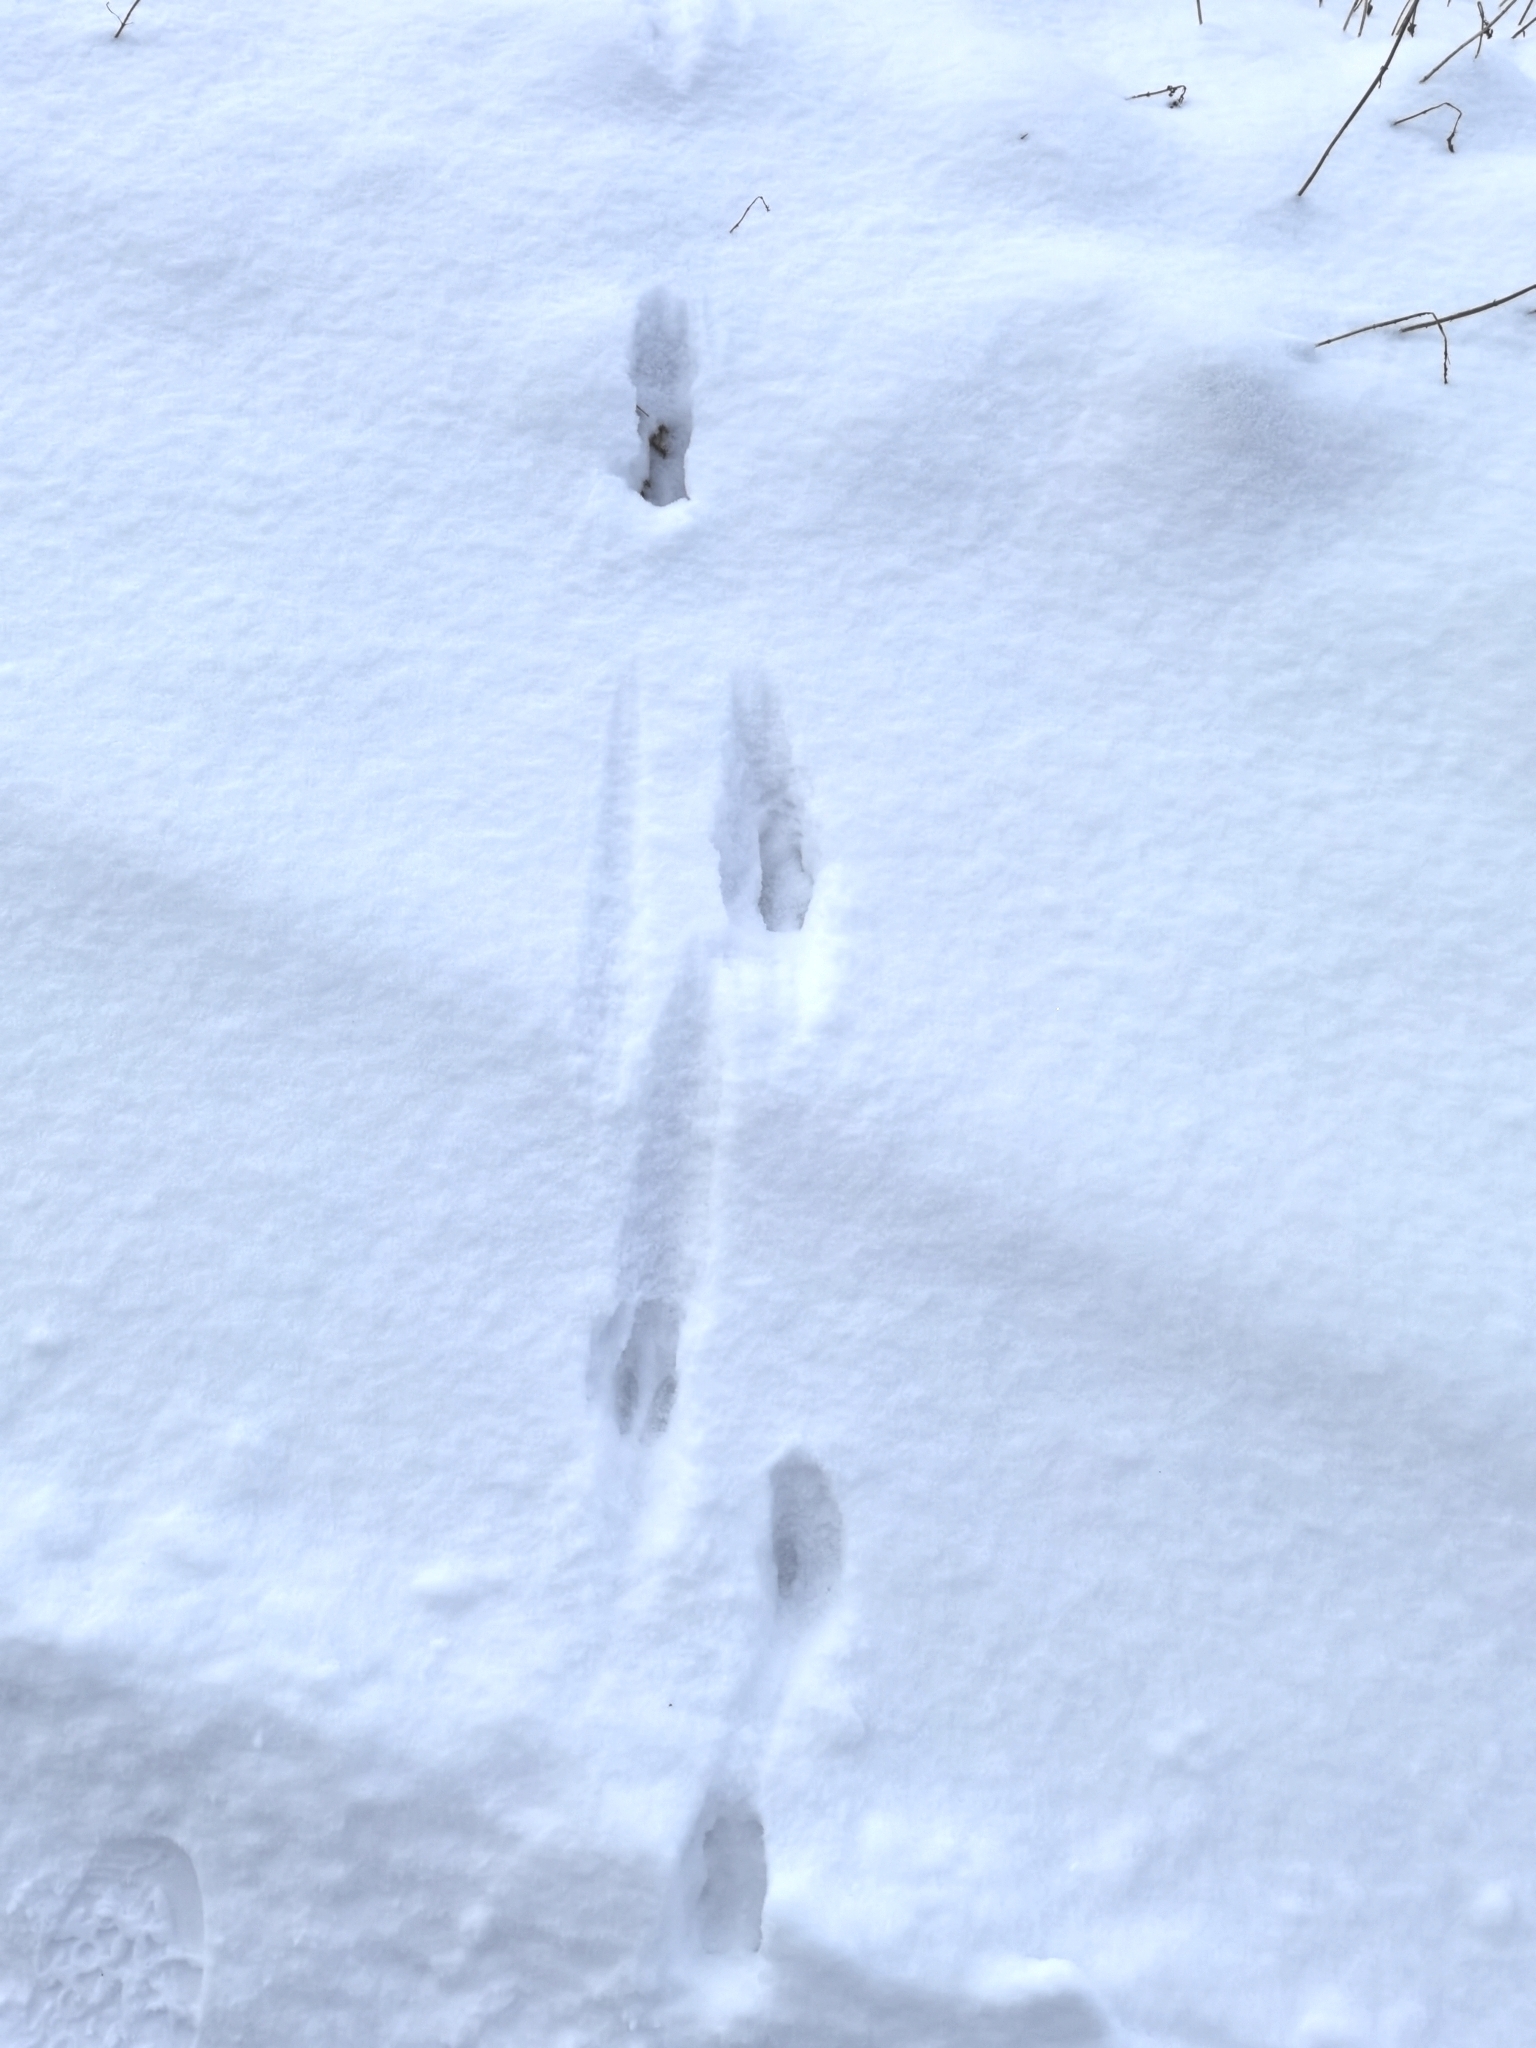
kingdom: Animalia
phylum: Chordata
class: Mammalia
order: Artiodactyla
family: Cervidae
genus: Capreolus
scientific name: Capreolus capreolus
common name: Western roe deer
